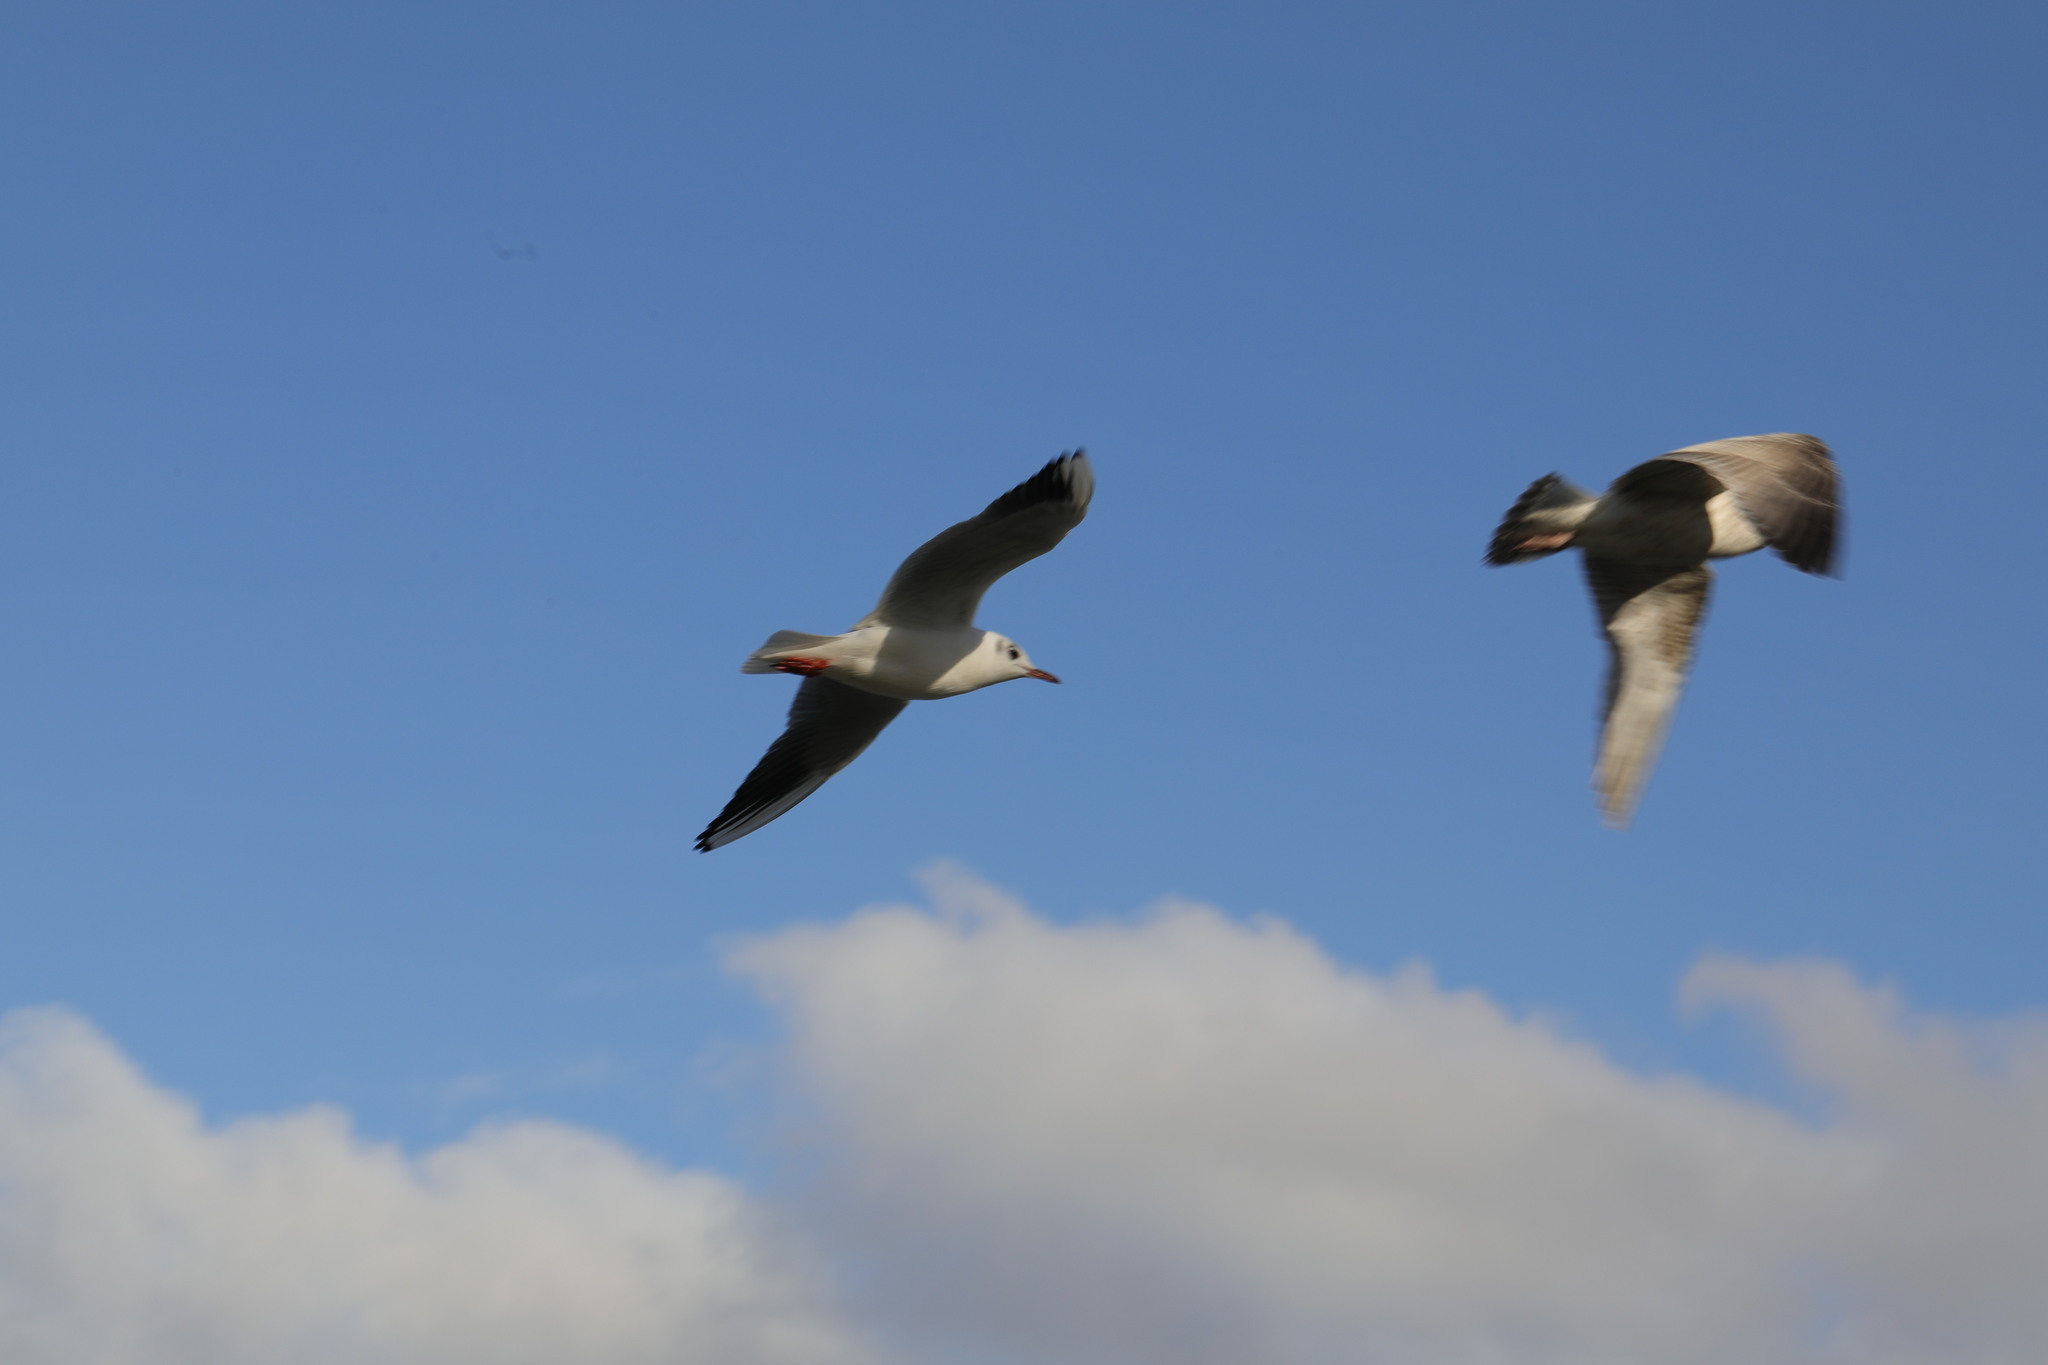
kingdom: Animalia
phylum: Chordata
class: Aves
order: Charadriiformes
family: Laridae
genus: Chroicocephalus
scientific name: Chroicocephalus ridibundus
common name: Black-headed gull
